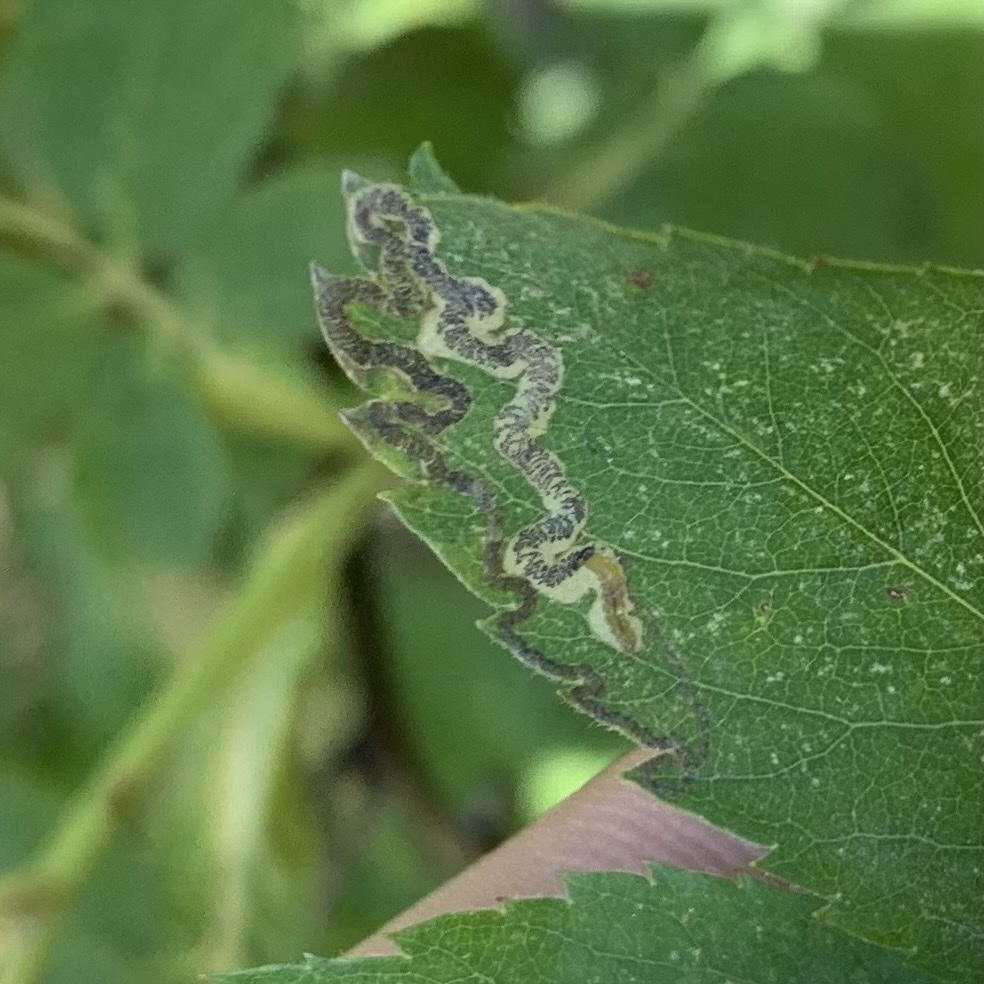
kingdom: Animalia
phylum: Arthropoda
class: Insecta
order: Lepidoptera
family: Nepticulidae
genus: Stigmella
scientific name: Stigmella rosaefoliella
